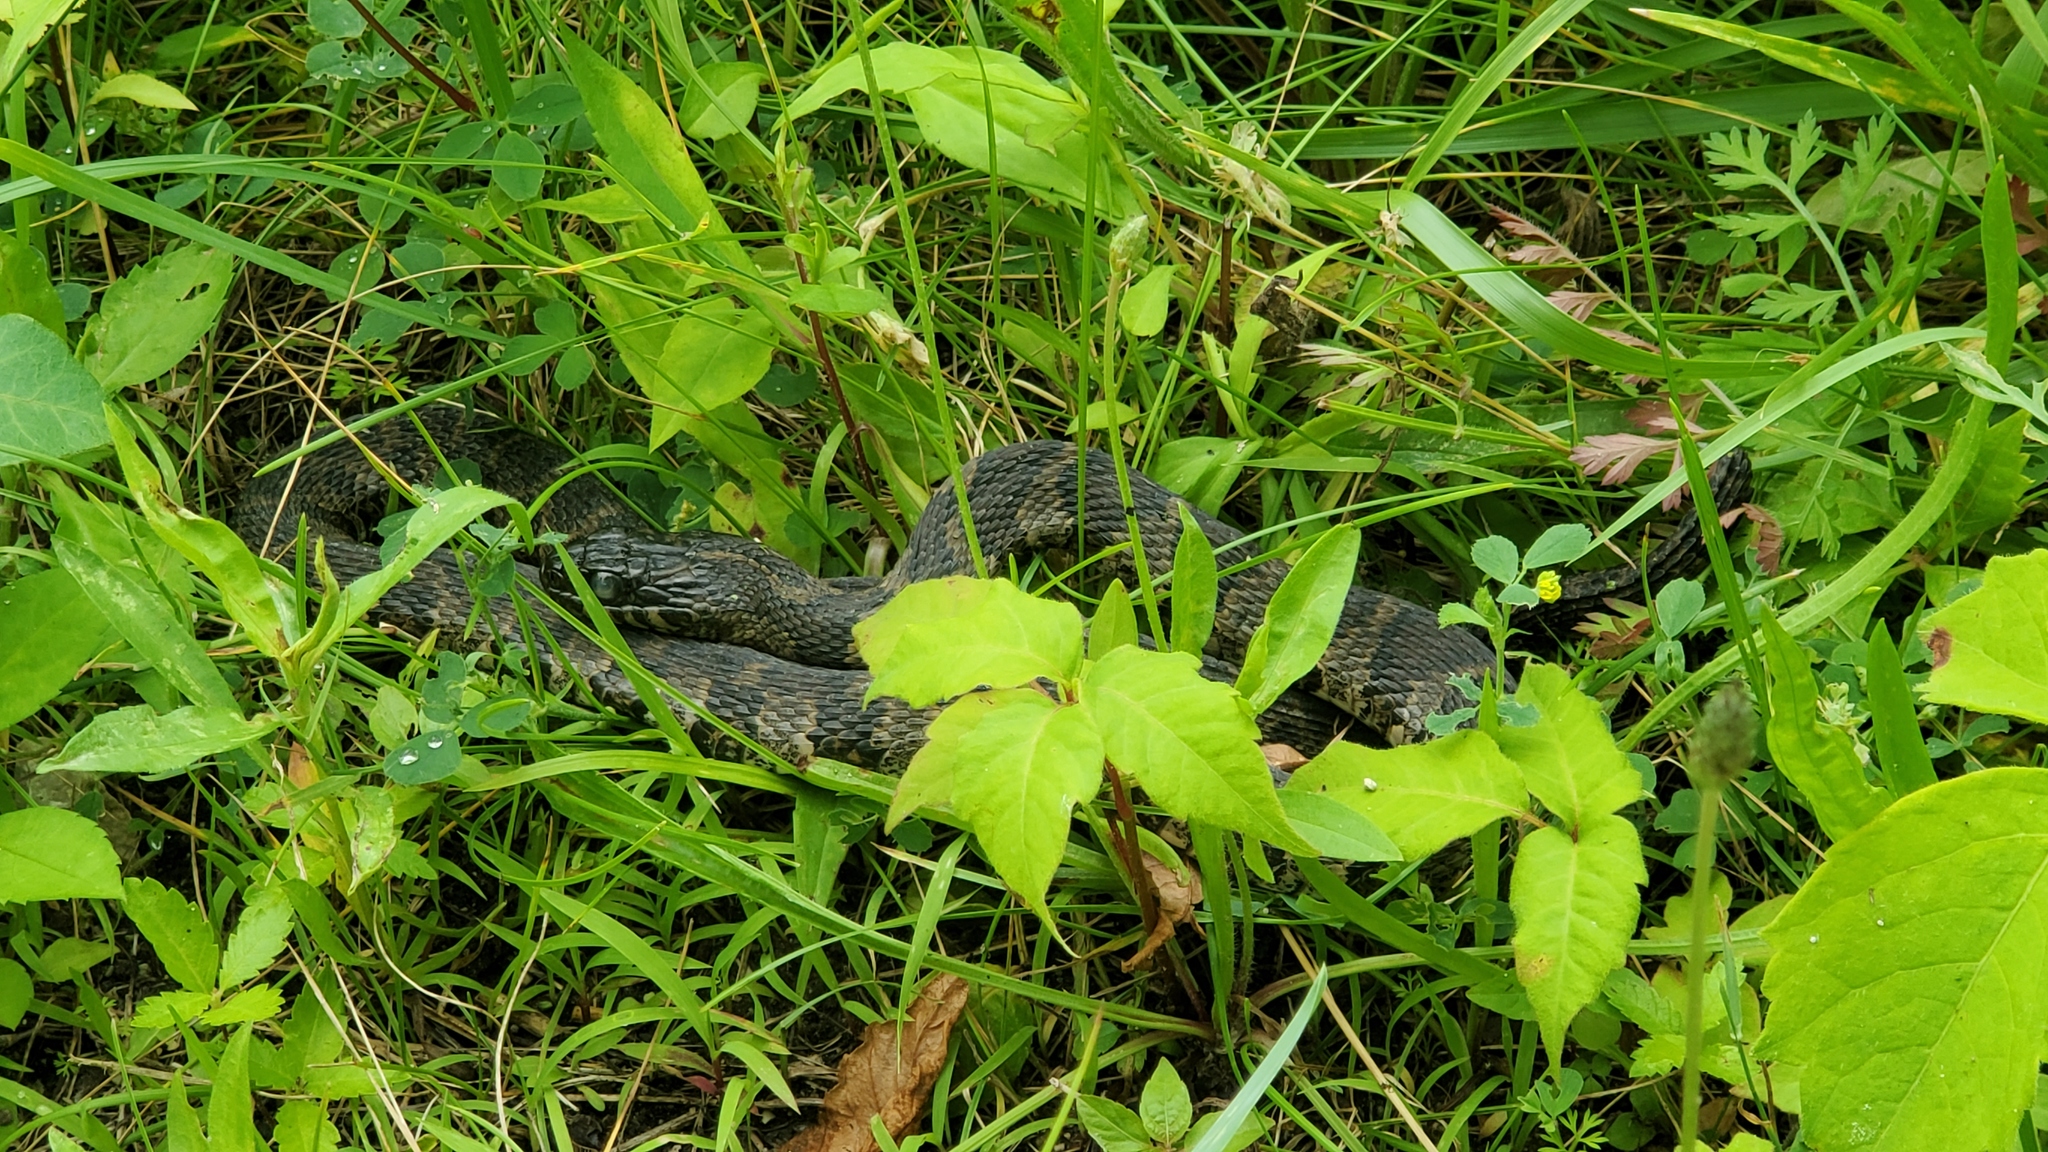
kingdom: Animalia
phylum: Chordata
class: Squamata
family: Colubridae
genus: Nerodia
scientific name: Nerodia sipedon
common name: Northern water snake
